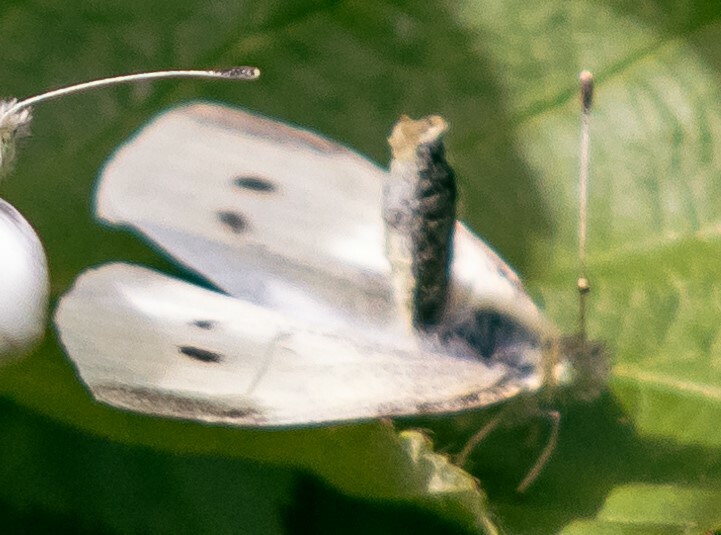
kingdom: Animalia
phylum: Arthropoda
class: Insecta
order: Lepidoptera
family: Pieridae
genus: Pieris
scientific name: Pieris rapae
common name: Small white
